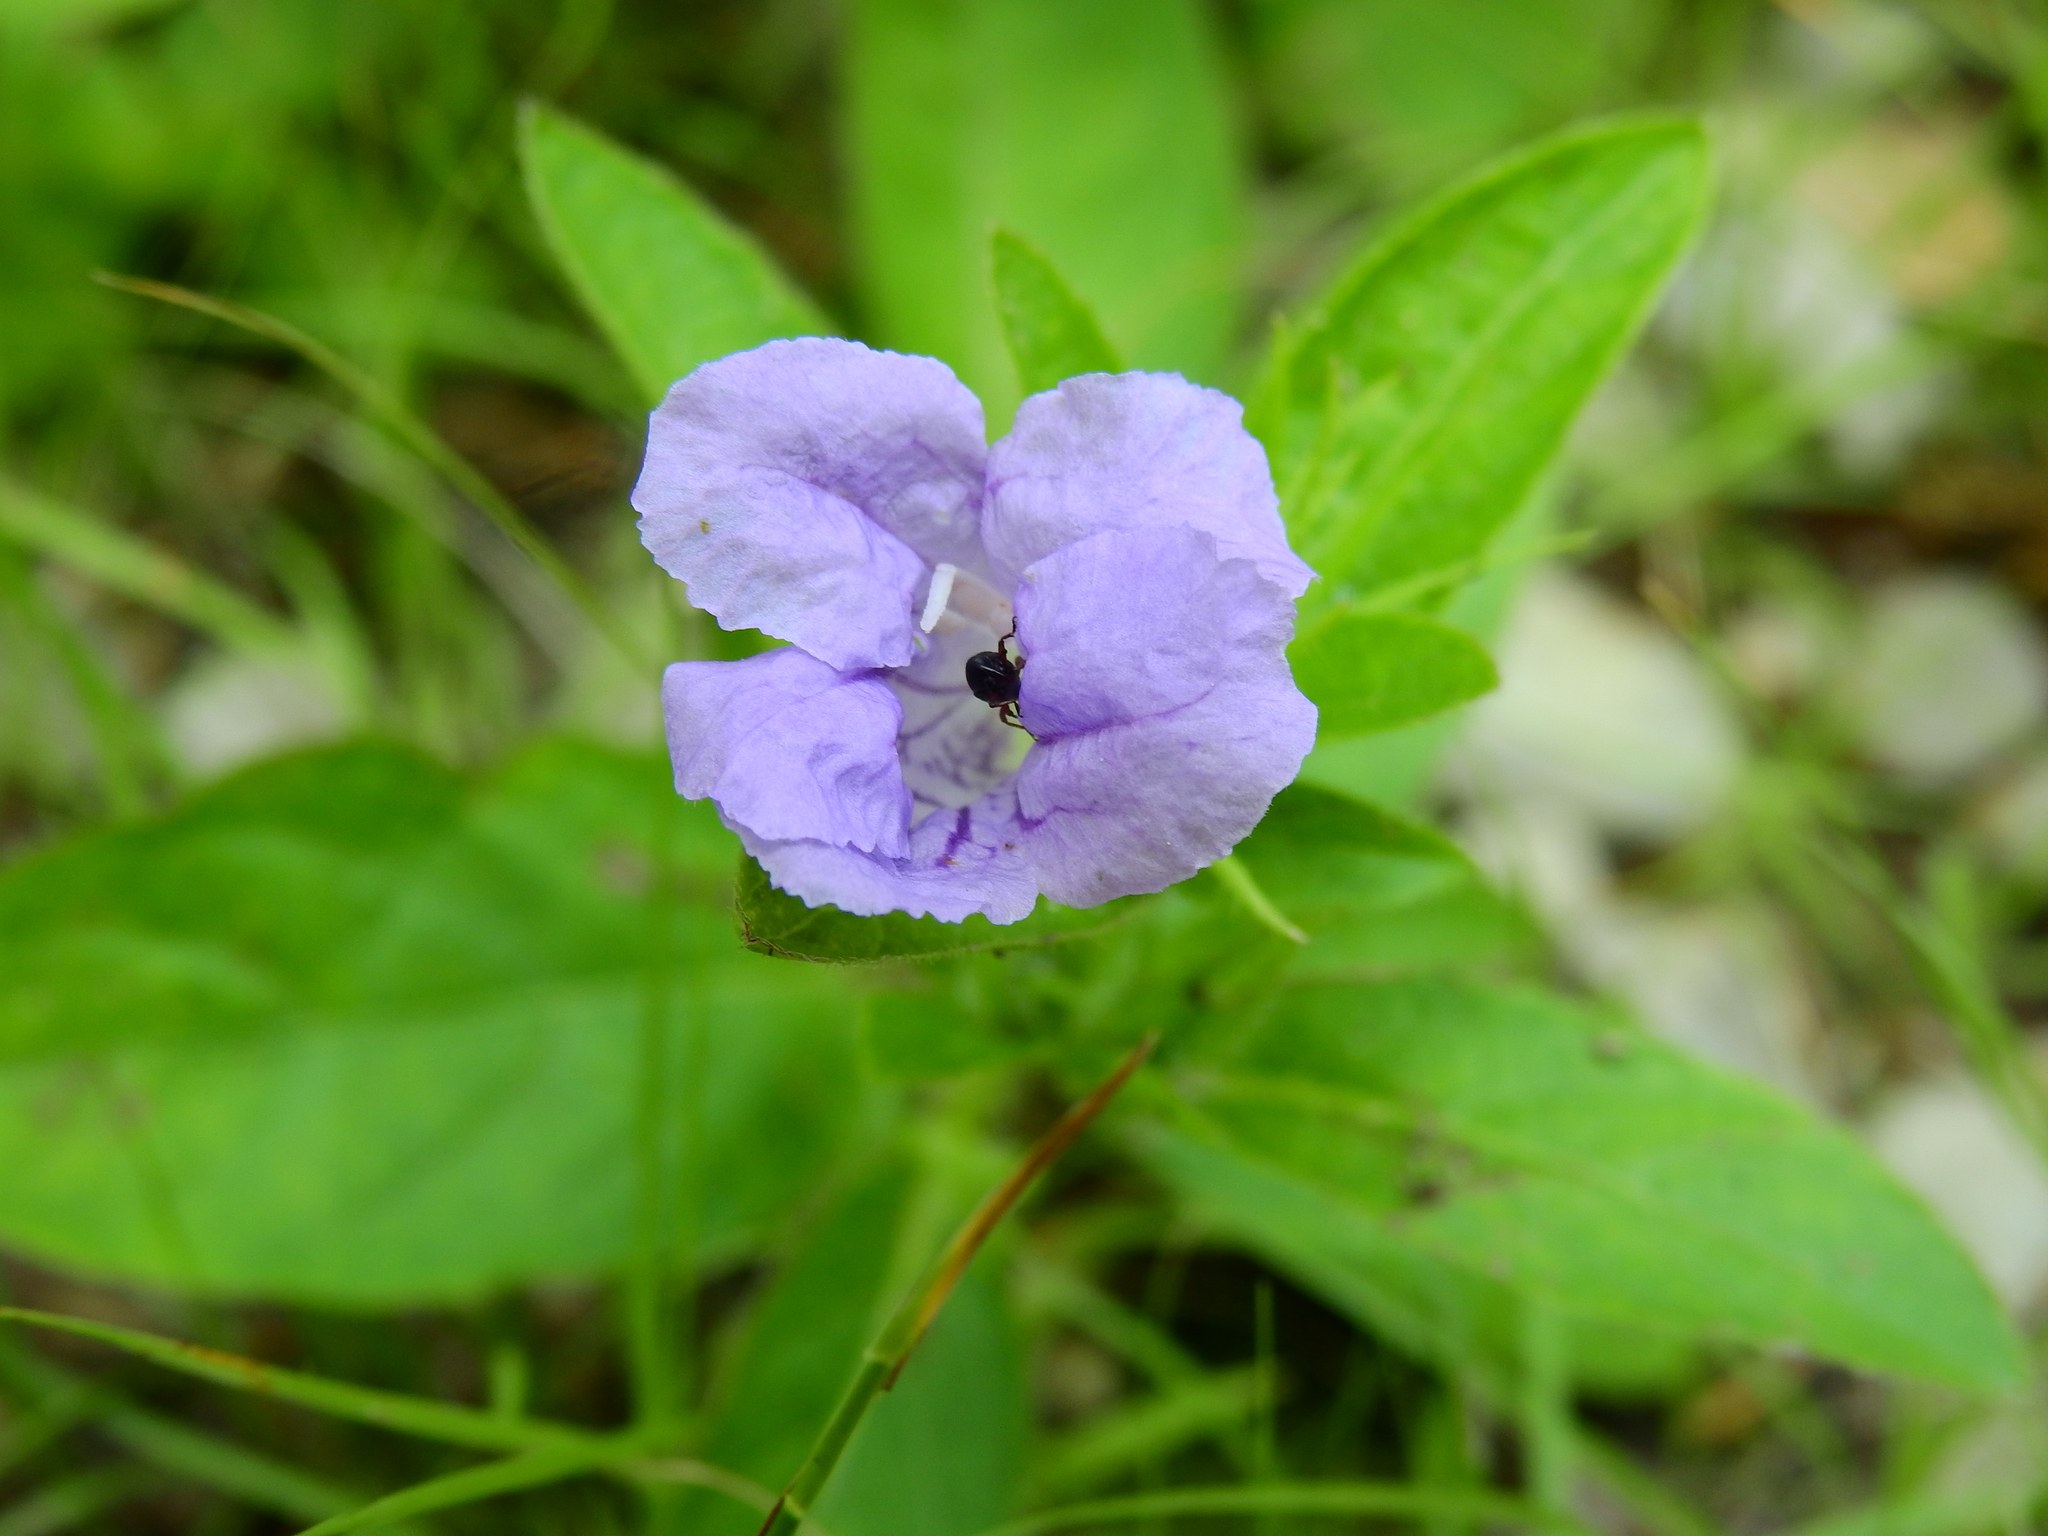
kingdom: Plantae
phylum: Tracheophyta
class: Magnoliopsida
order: Lamiales
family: Acanthaceae
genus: Ruellia
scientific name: Ruellia humilis
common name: Fringe-leaf ruellia
